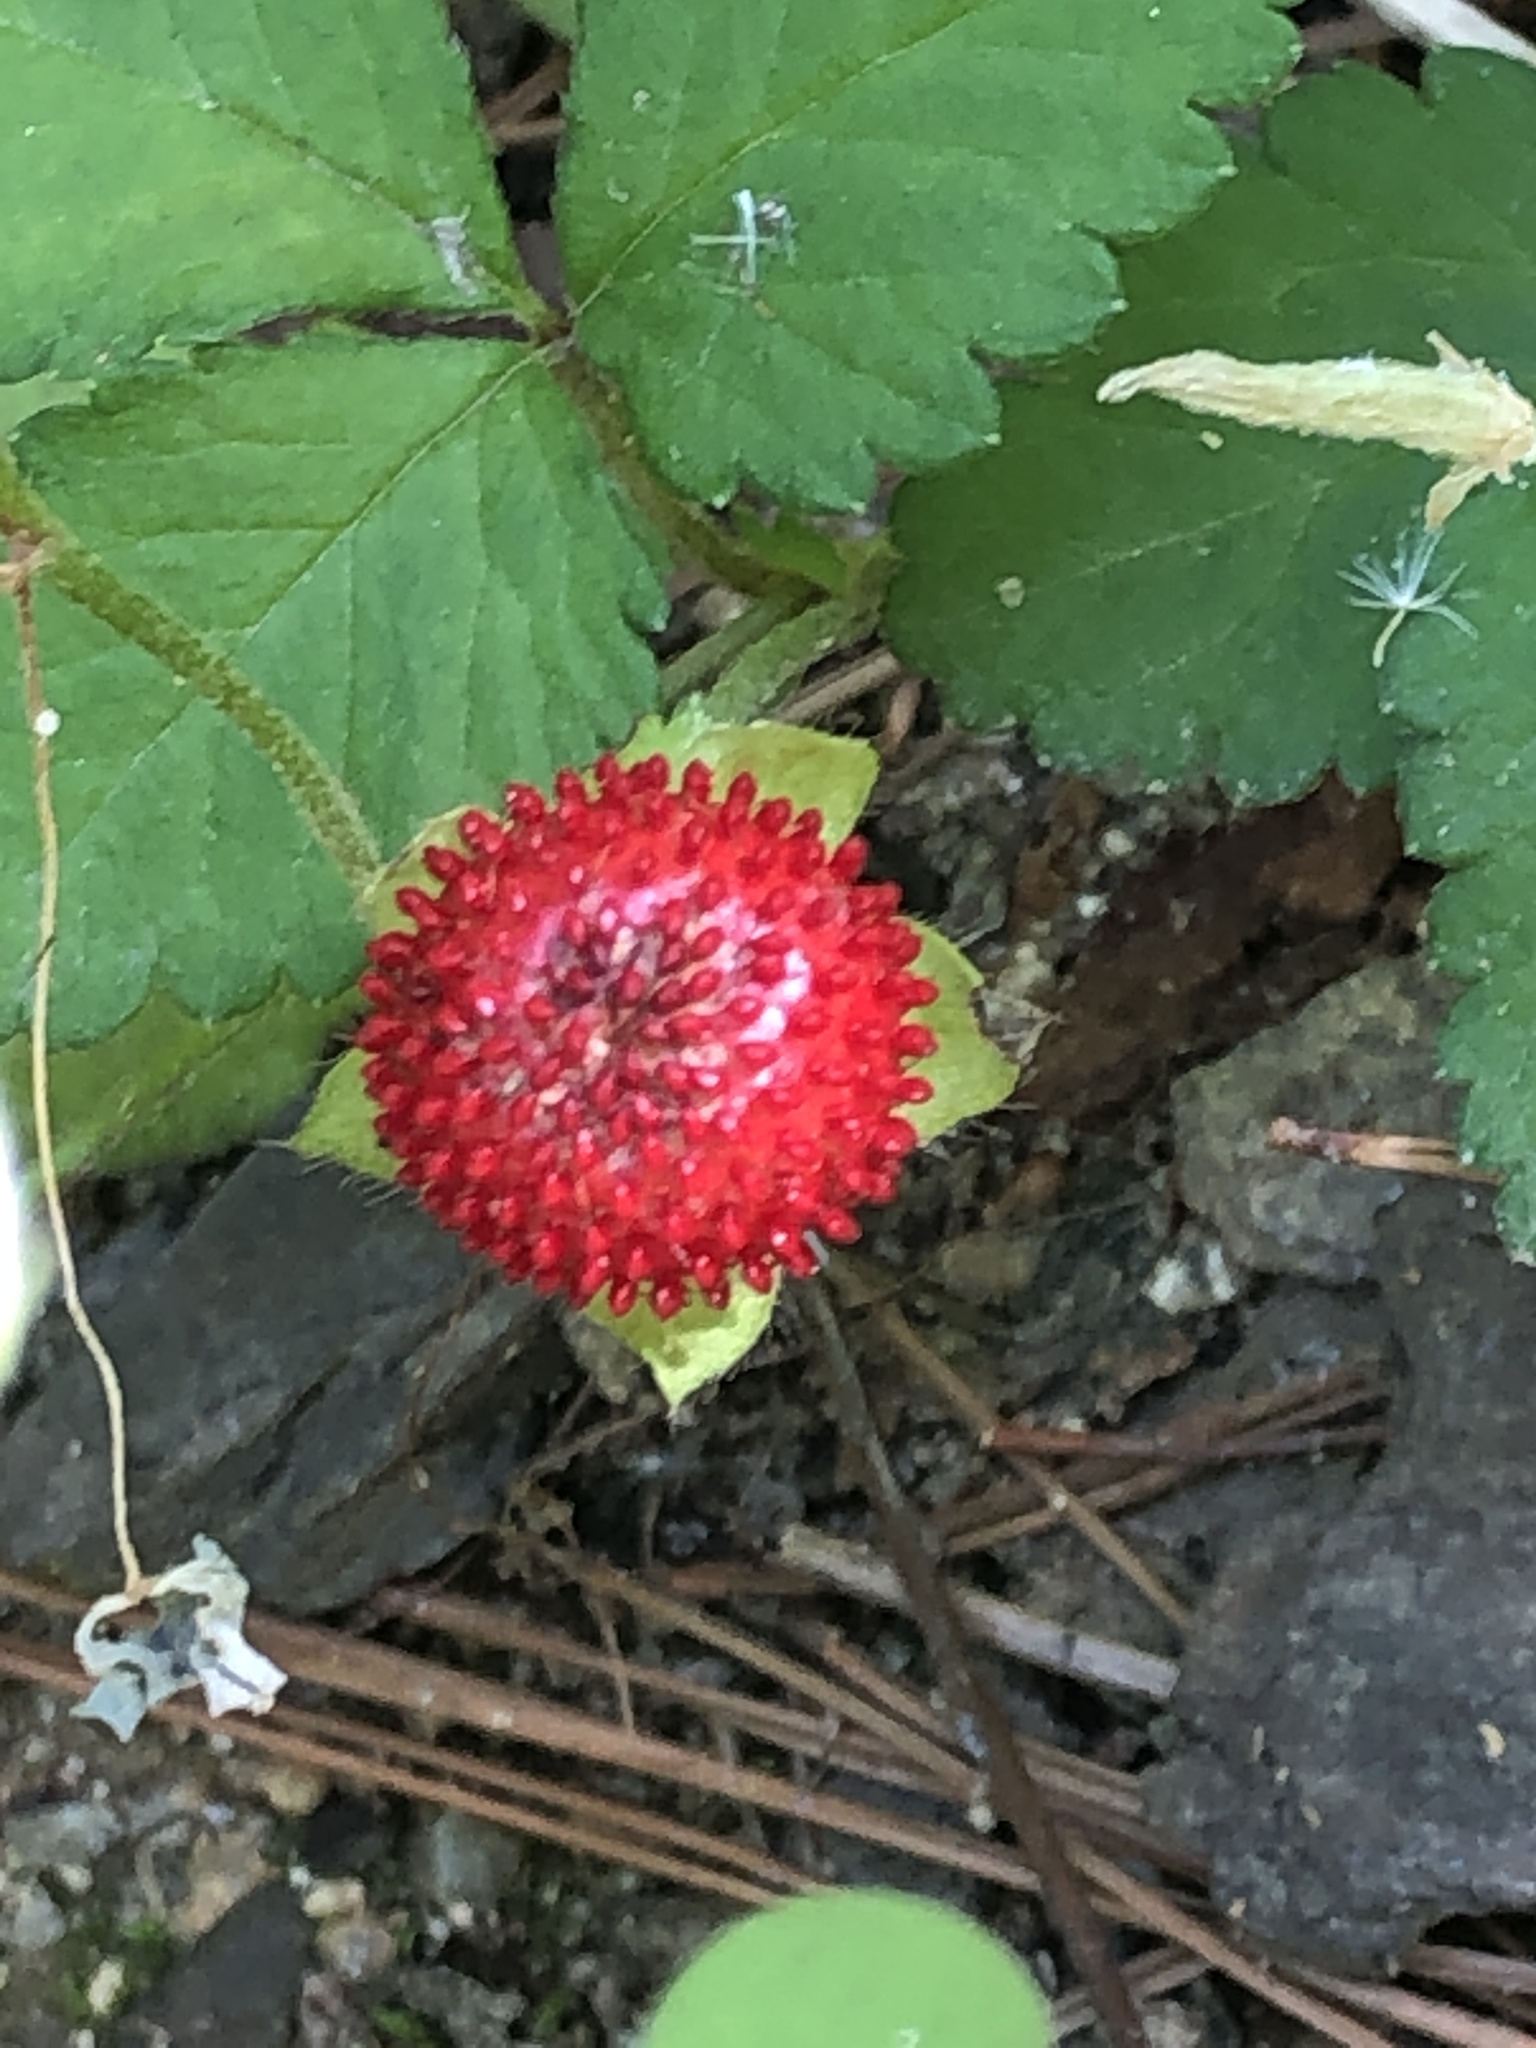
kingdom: Plantae
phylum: Tracheophyta
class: Magnoliopsida
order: Rosales
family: Rosaceae
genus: Potentilla
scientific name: Potentilla indica
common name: Yellow-flowered strawberry
